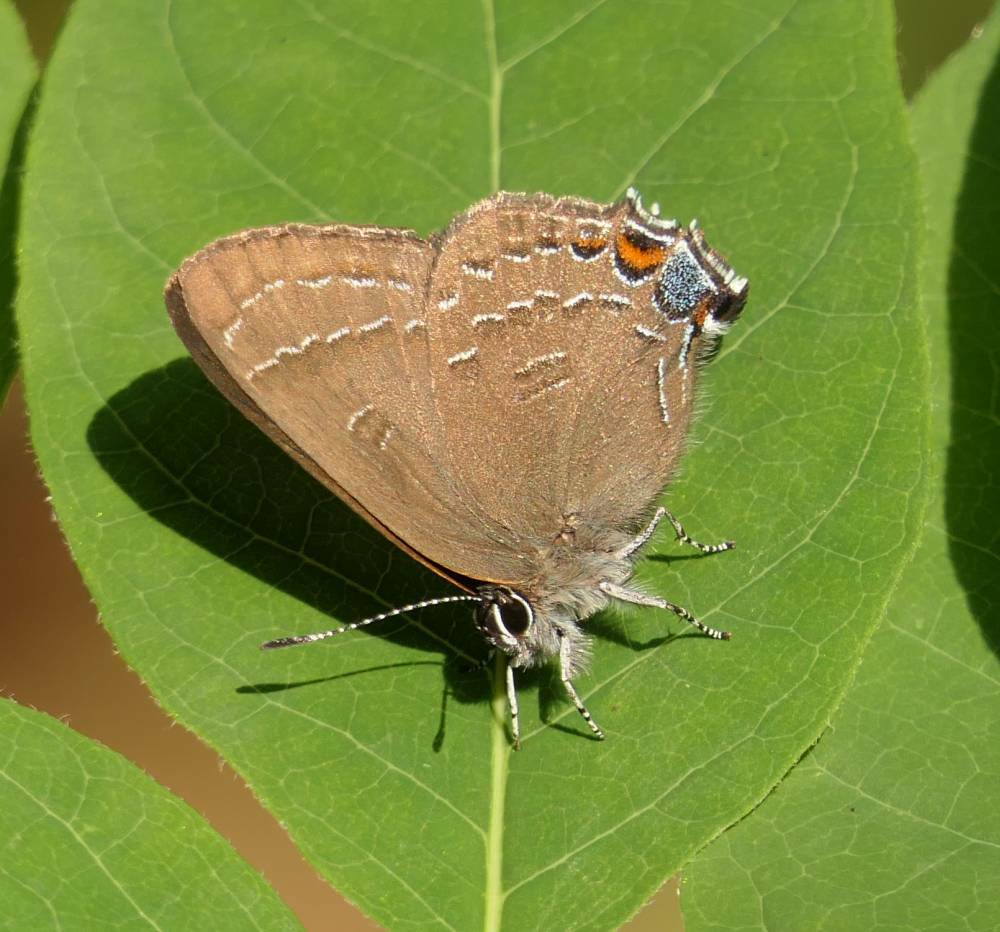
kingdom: Animalia
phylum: Arthropoda
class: Insecta
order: Lepidoptera
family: Lycaenidae
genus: Satyrium
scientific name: Satyrium calanus
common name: Banded hairstreak
